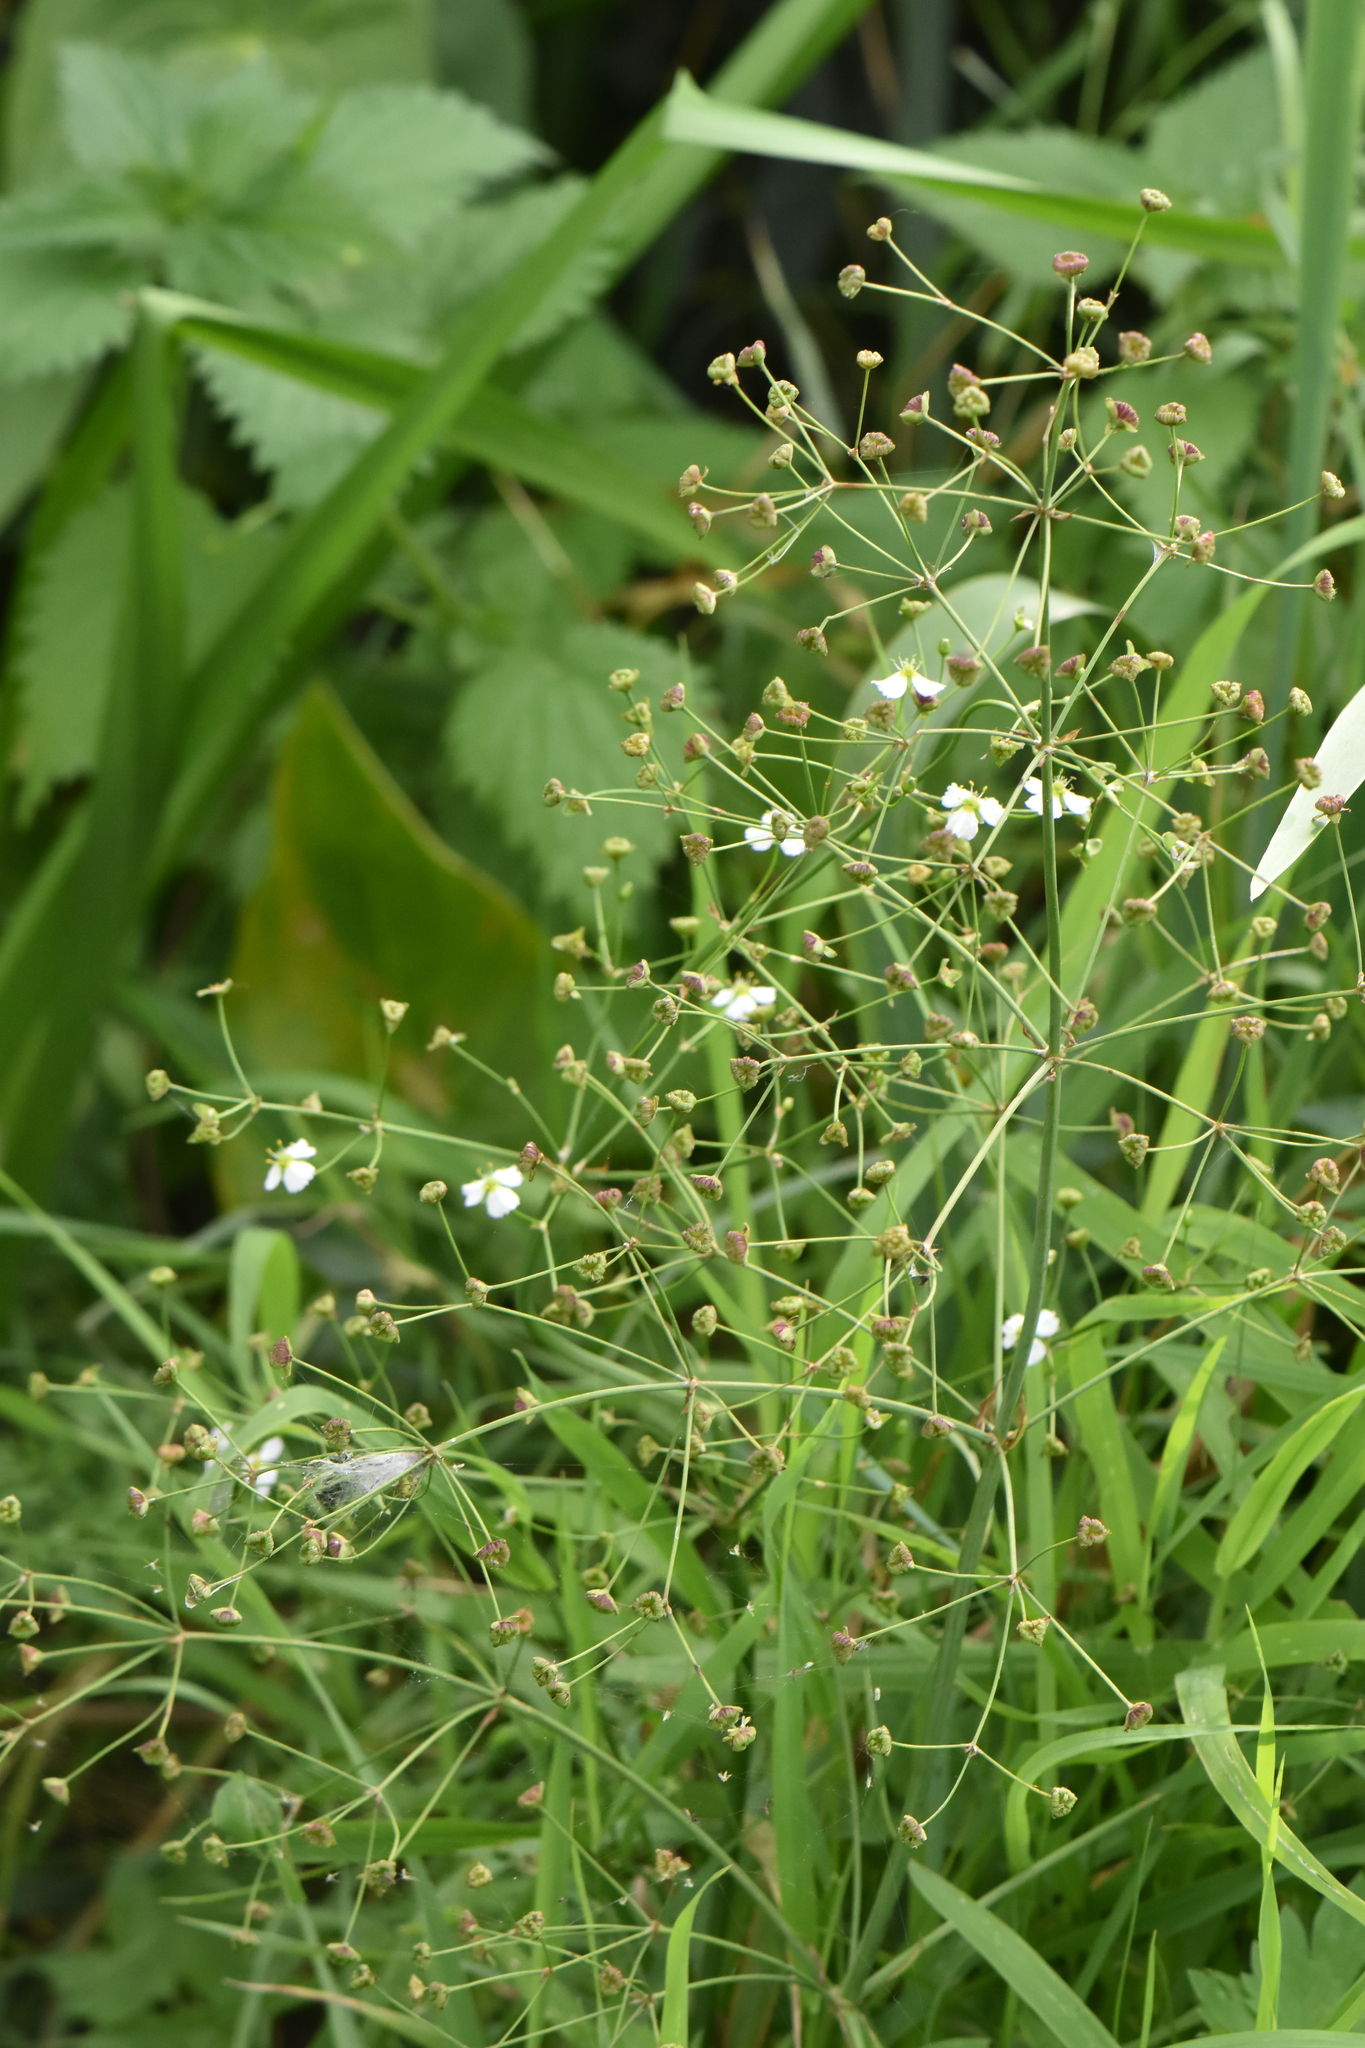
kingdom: Plantae
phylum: Tracheophyta
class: Liliopsida
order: Alismatales
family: Alismataceae
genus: Alisma
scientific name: Alisma plantago-aquatica
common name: Water-plantain
